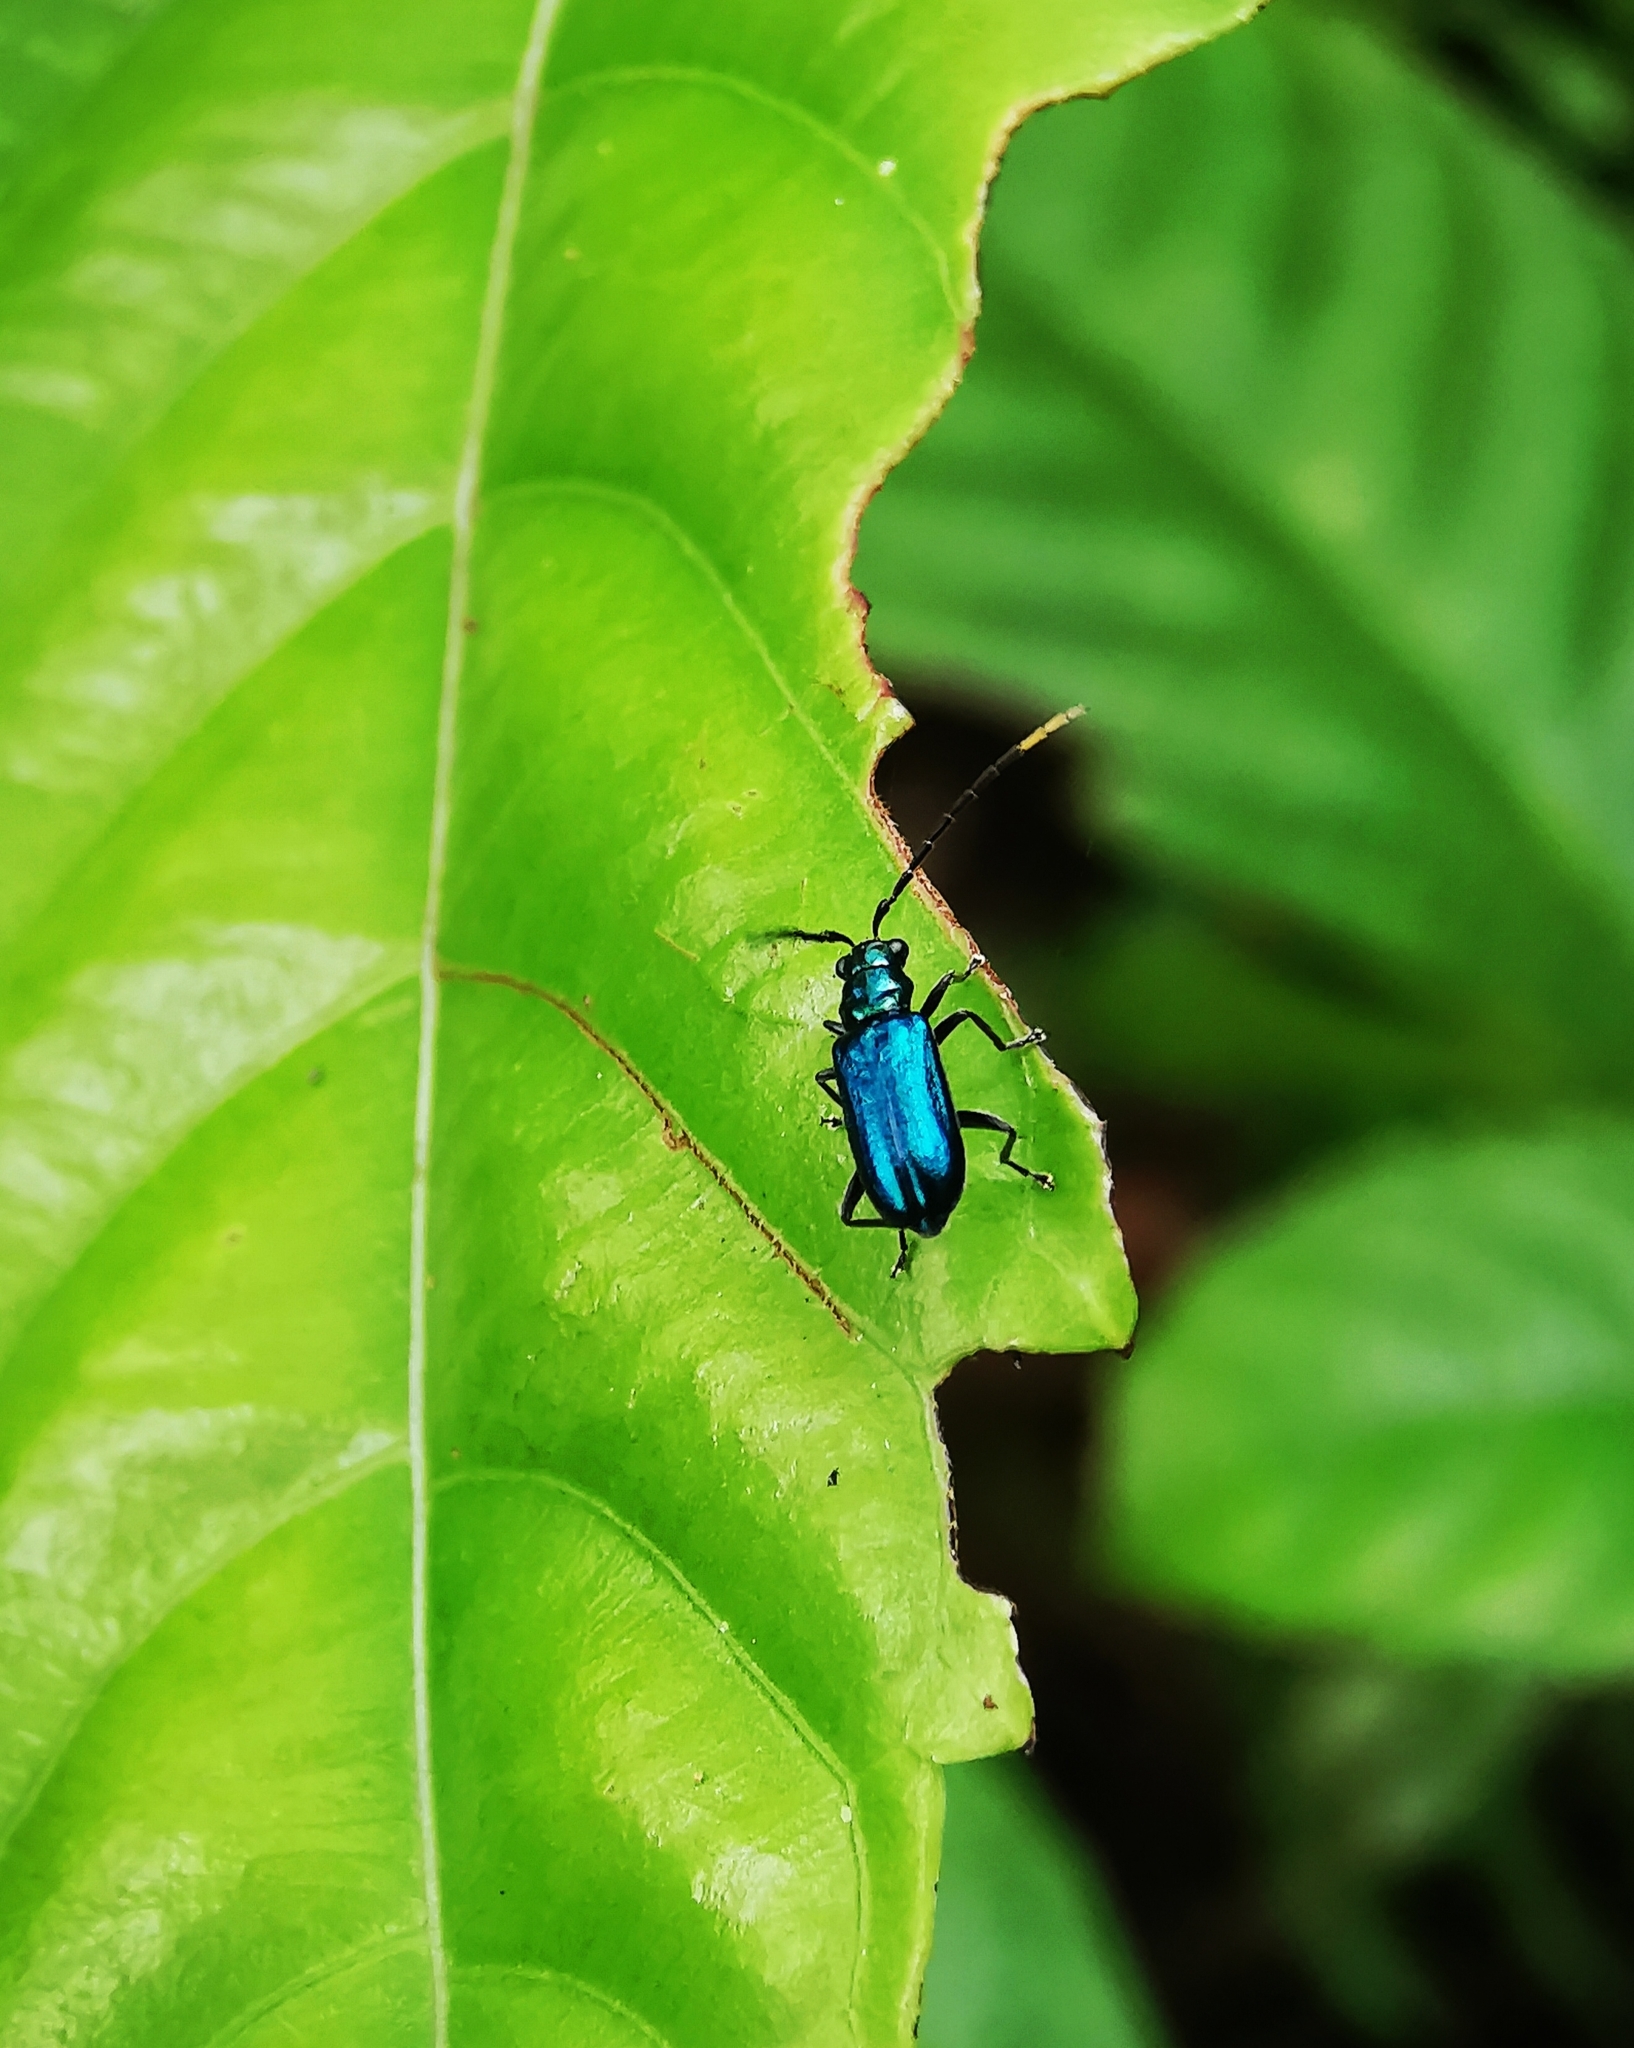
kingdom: Animalia
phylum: Arthropoda
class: Insecta
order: Coleoptera
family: Chrysomelidae
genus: Hoplosaenidea
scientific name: Hoplosaenidea
